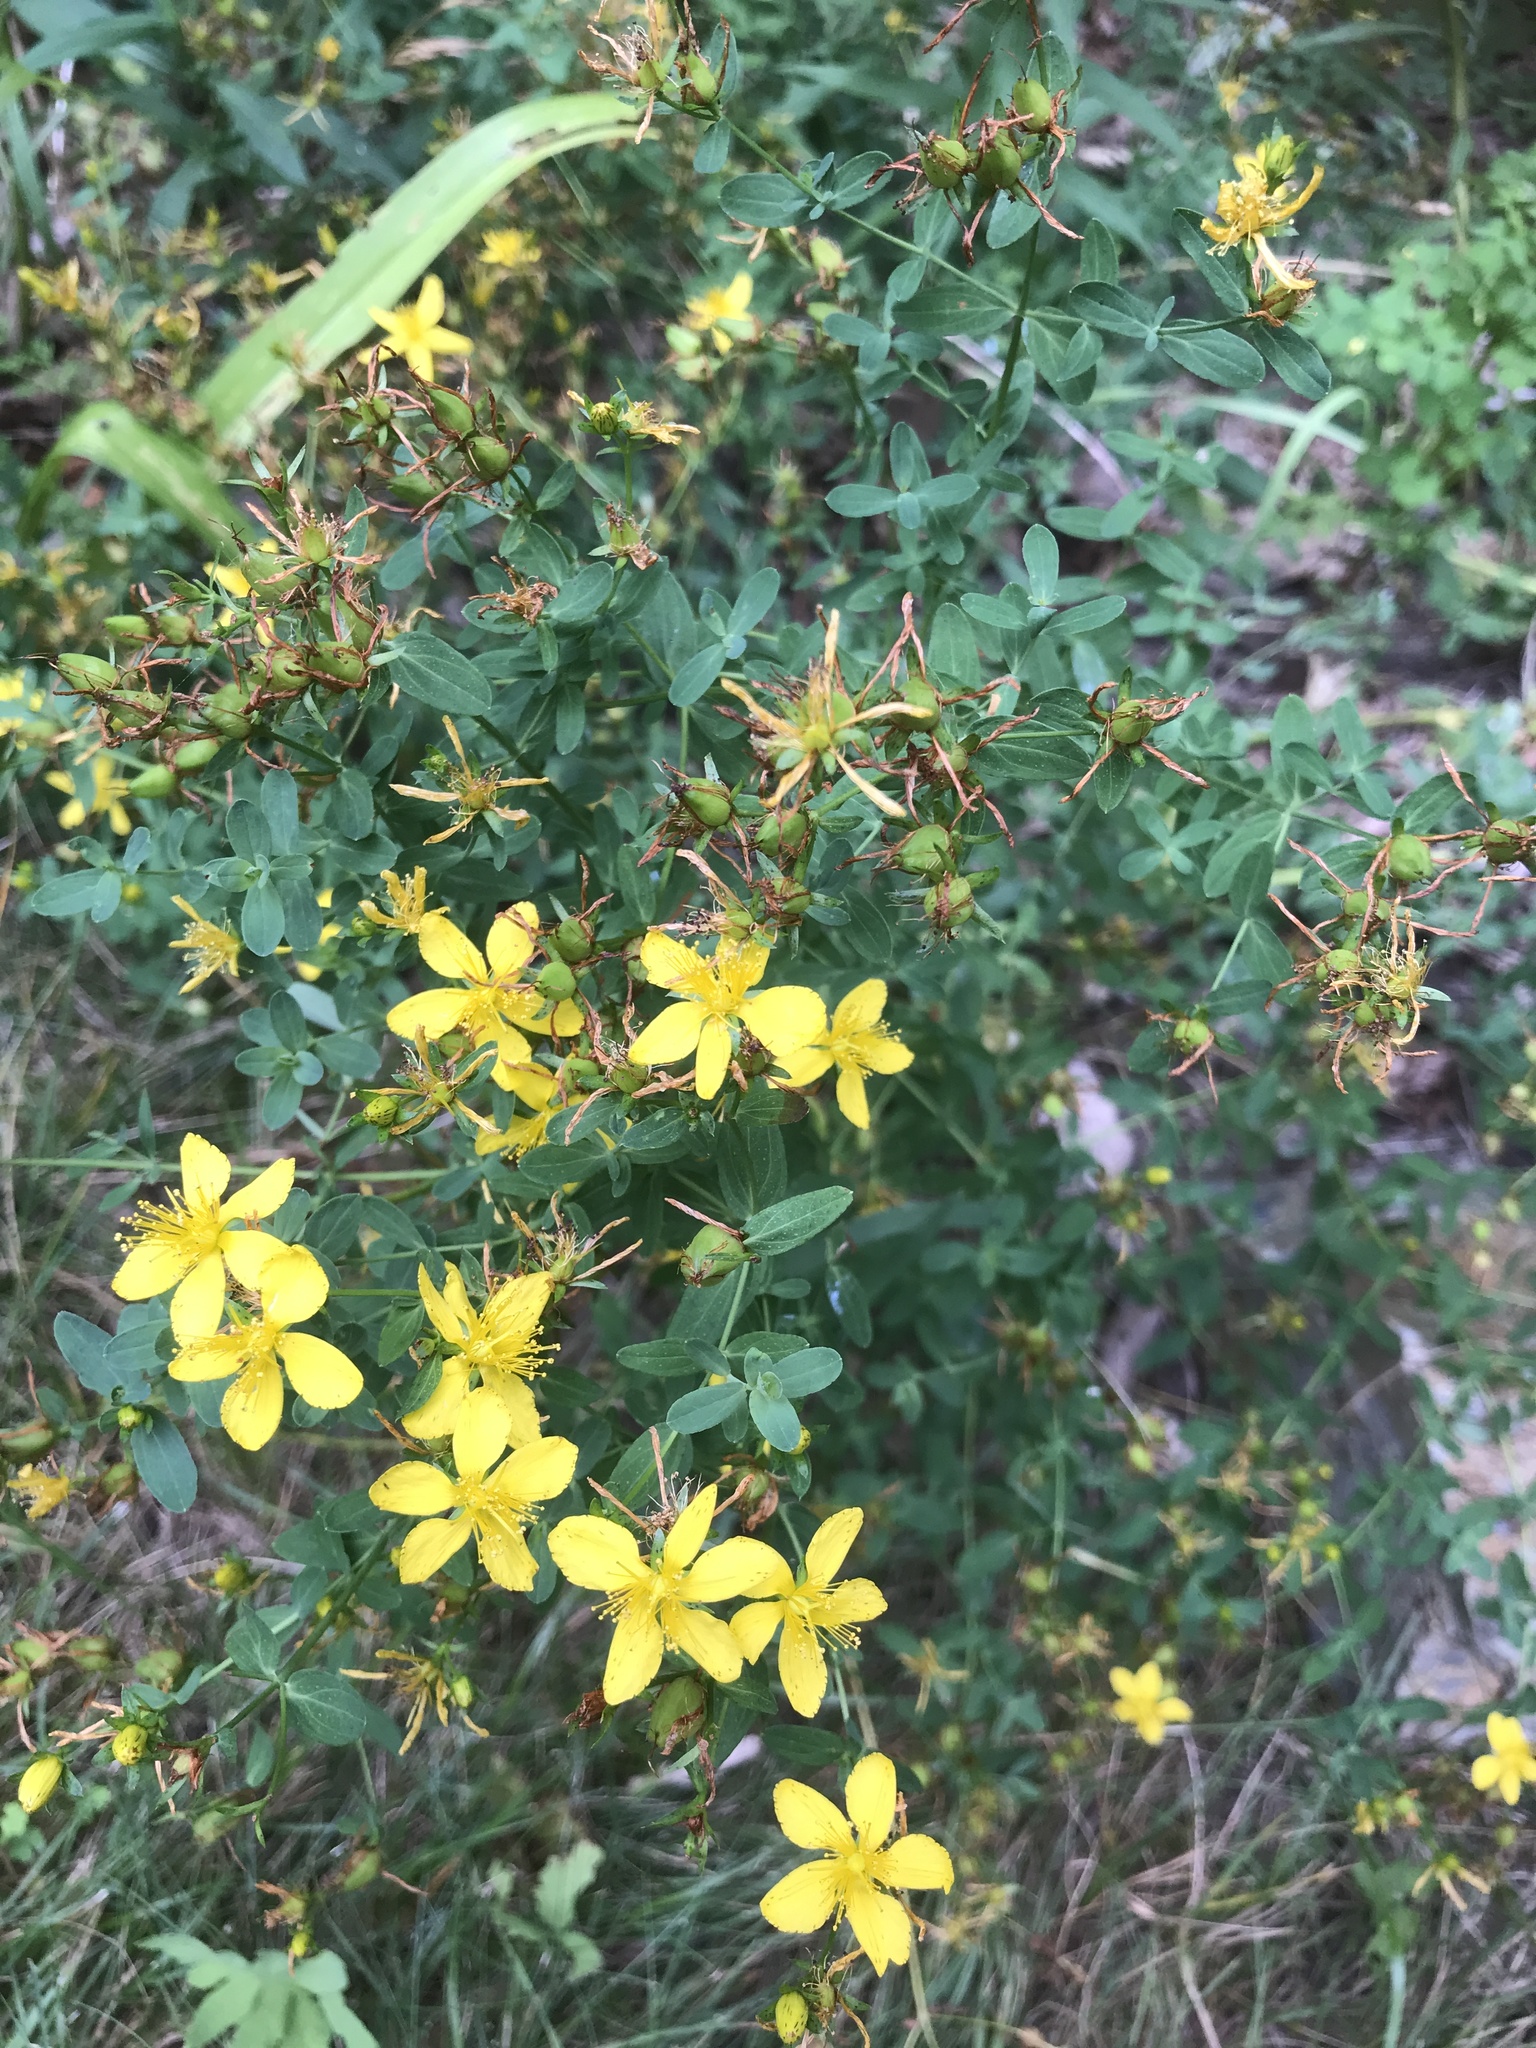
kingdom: Plantae
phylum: Tracheophyta
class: Magnoliopsida
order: Malpighiales
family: Hypericaceae
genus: Hypericum
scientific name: Hypericum perforatum
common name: Common st. johnswort
